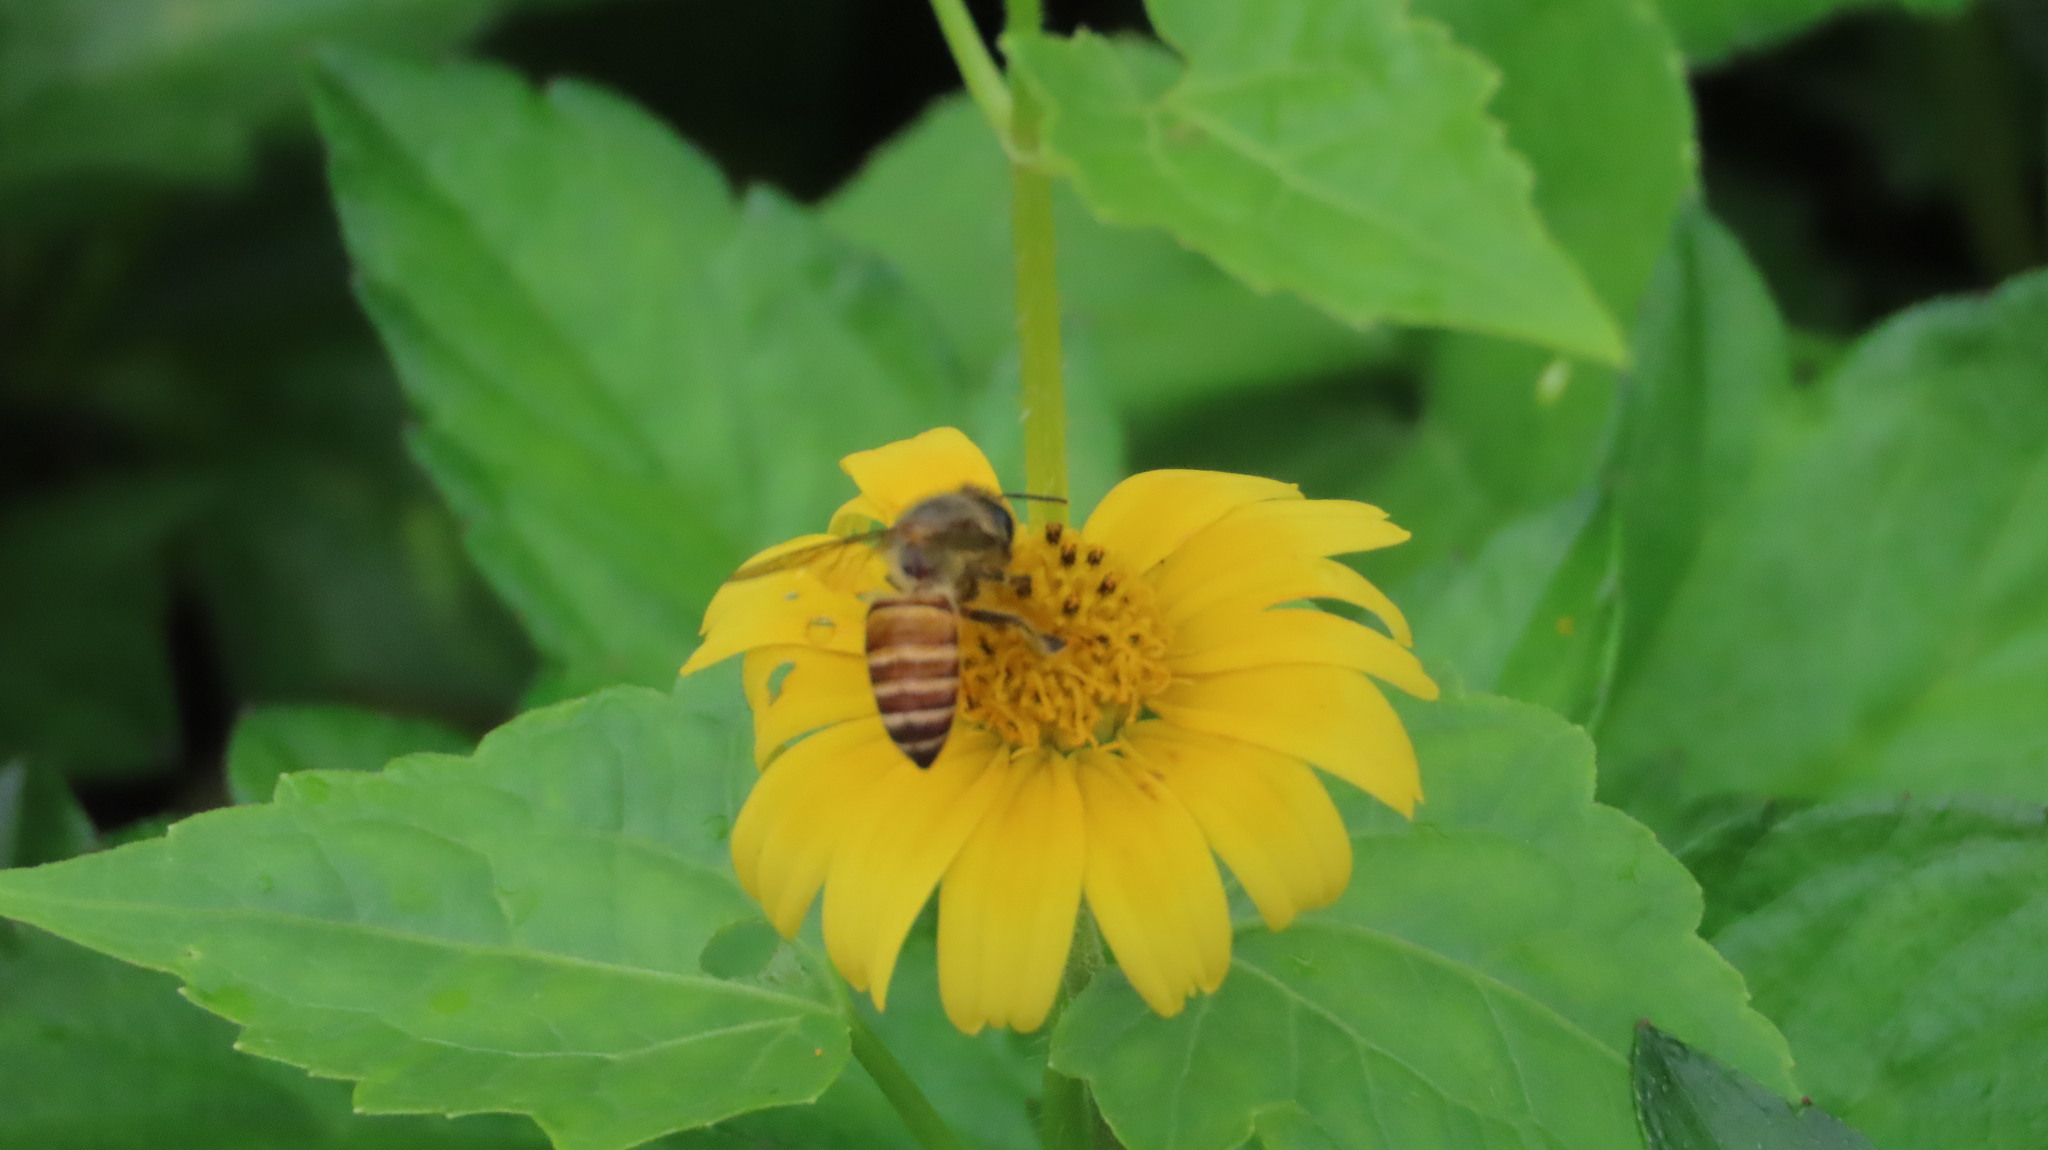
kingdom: Animalia
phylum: Arthropoda
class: Insecta
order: Hymenoptera
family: Apidae
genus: Apis
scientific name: Apis cerana
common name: Honey bee
